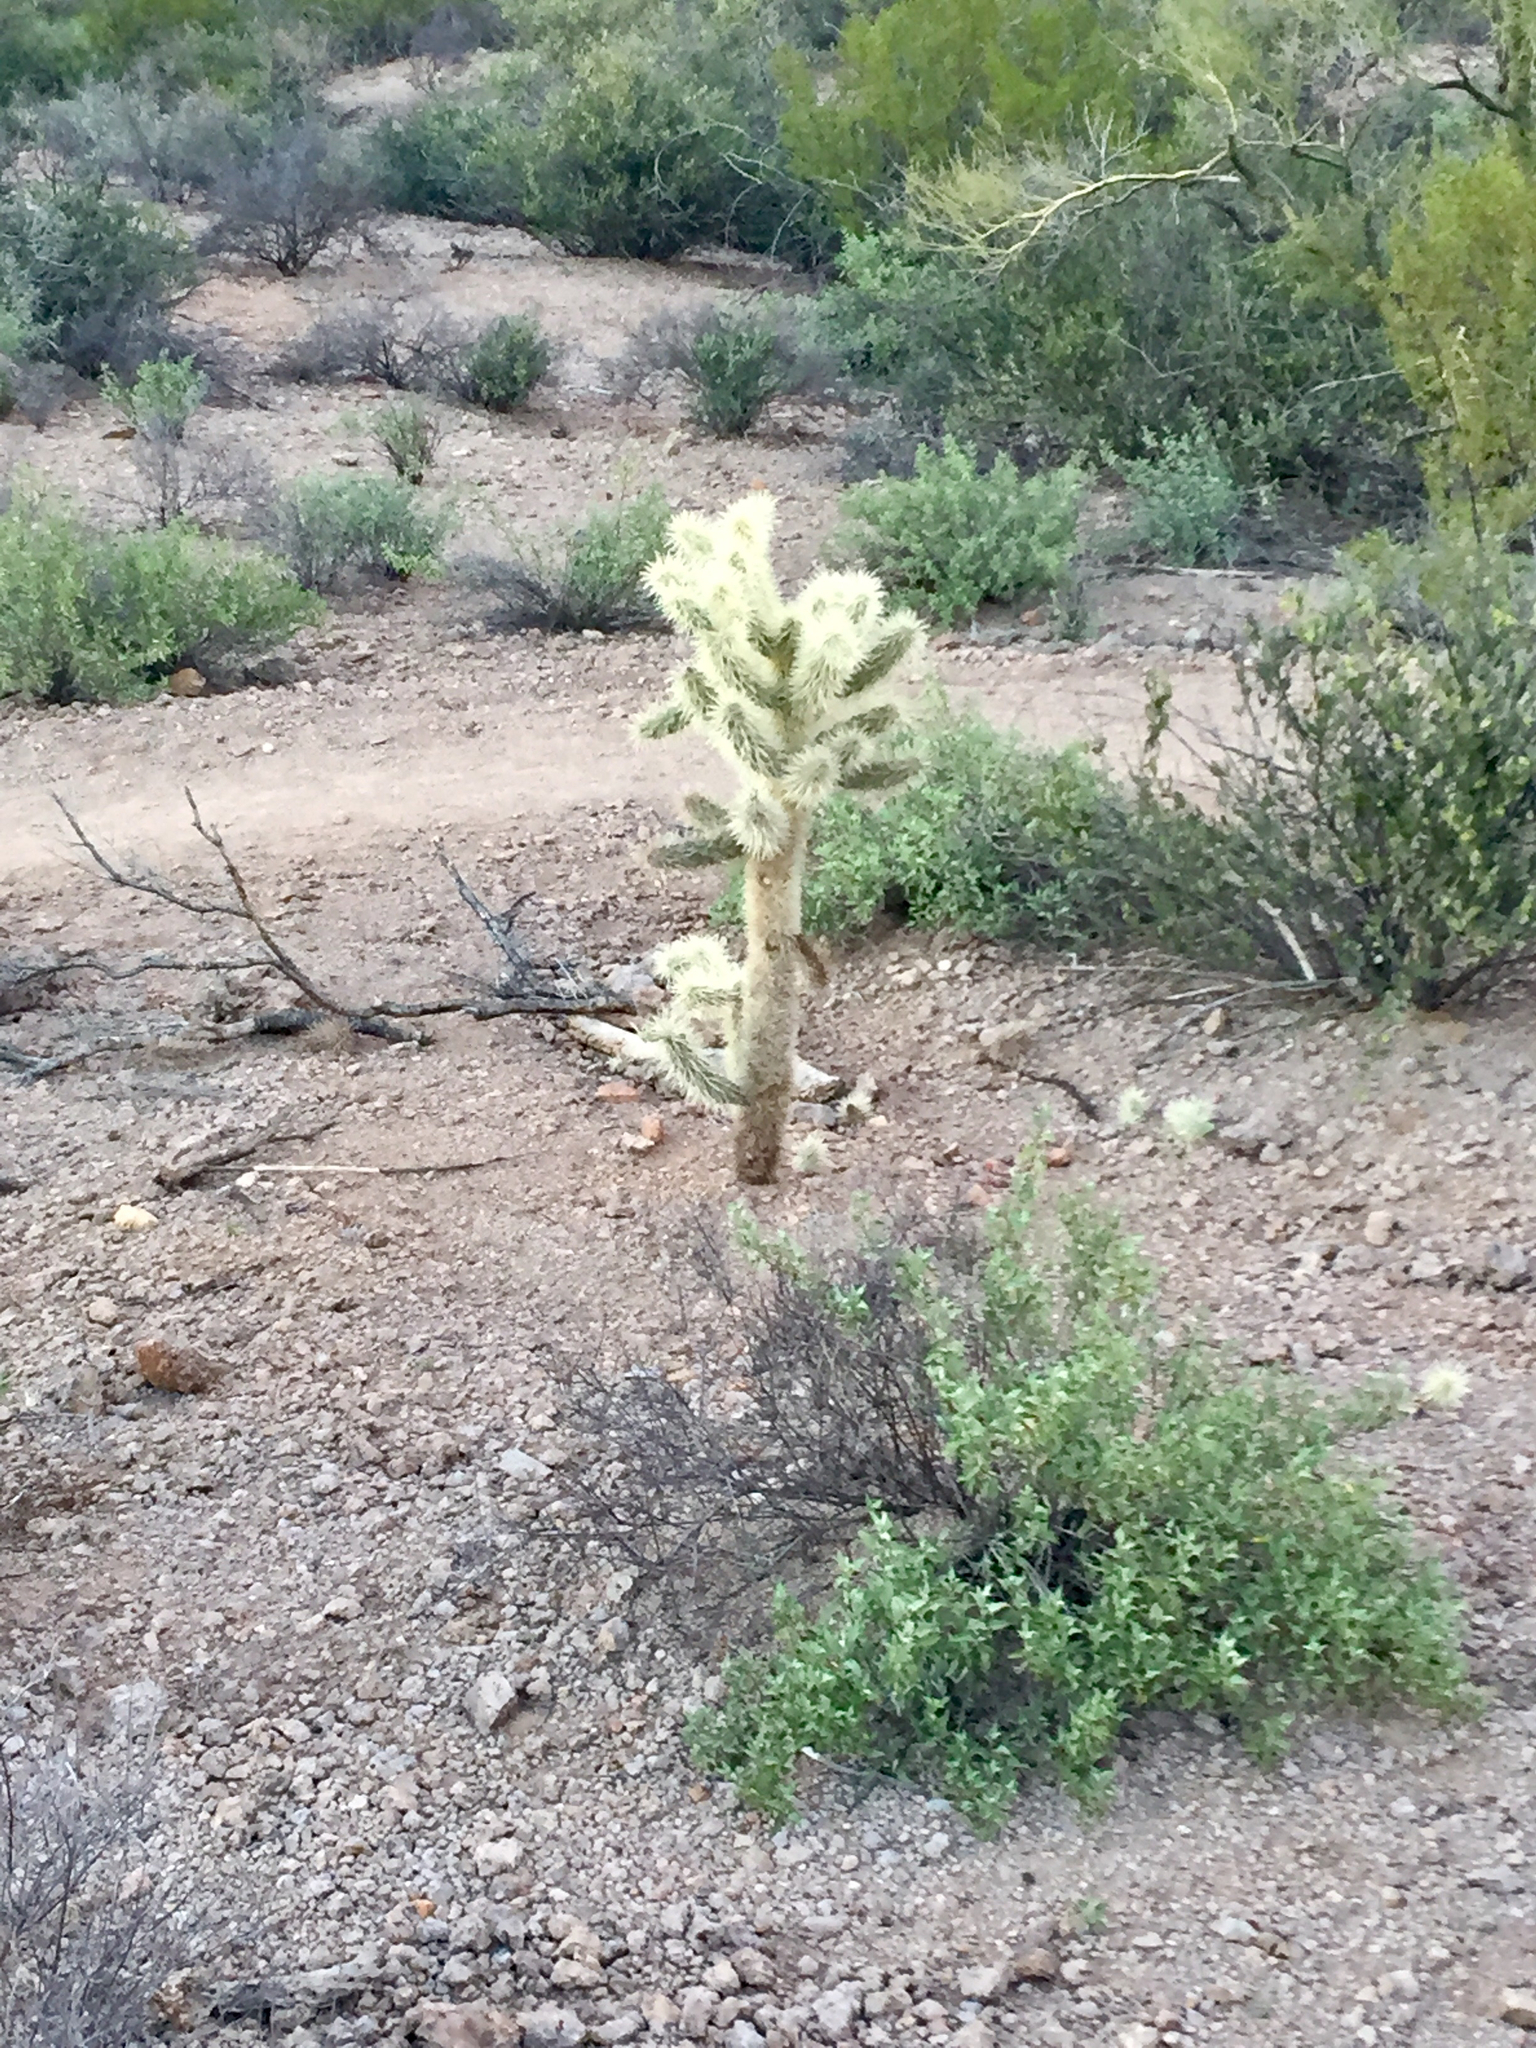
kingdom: Plantae
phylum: Tracheophyta
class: Magnoliopsida
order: Caryophyllales
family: Cactaceae
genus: Cylindropuntia
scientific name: Cylindropuntia fosbergii
